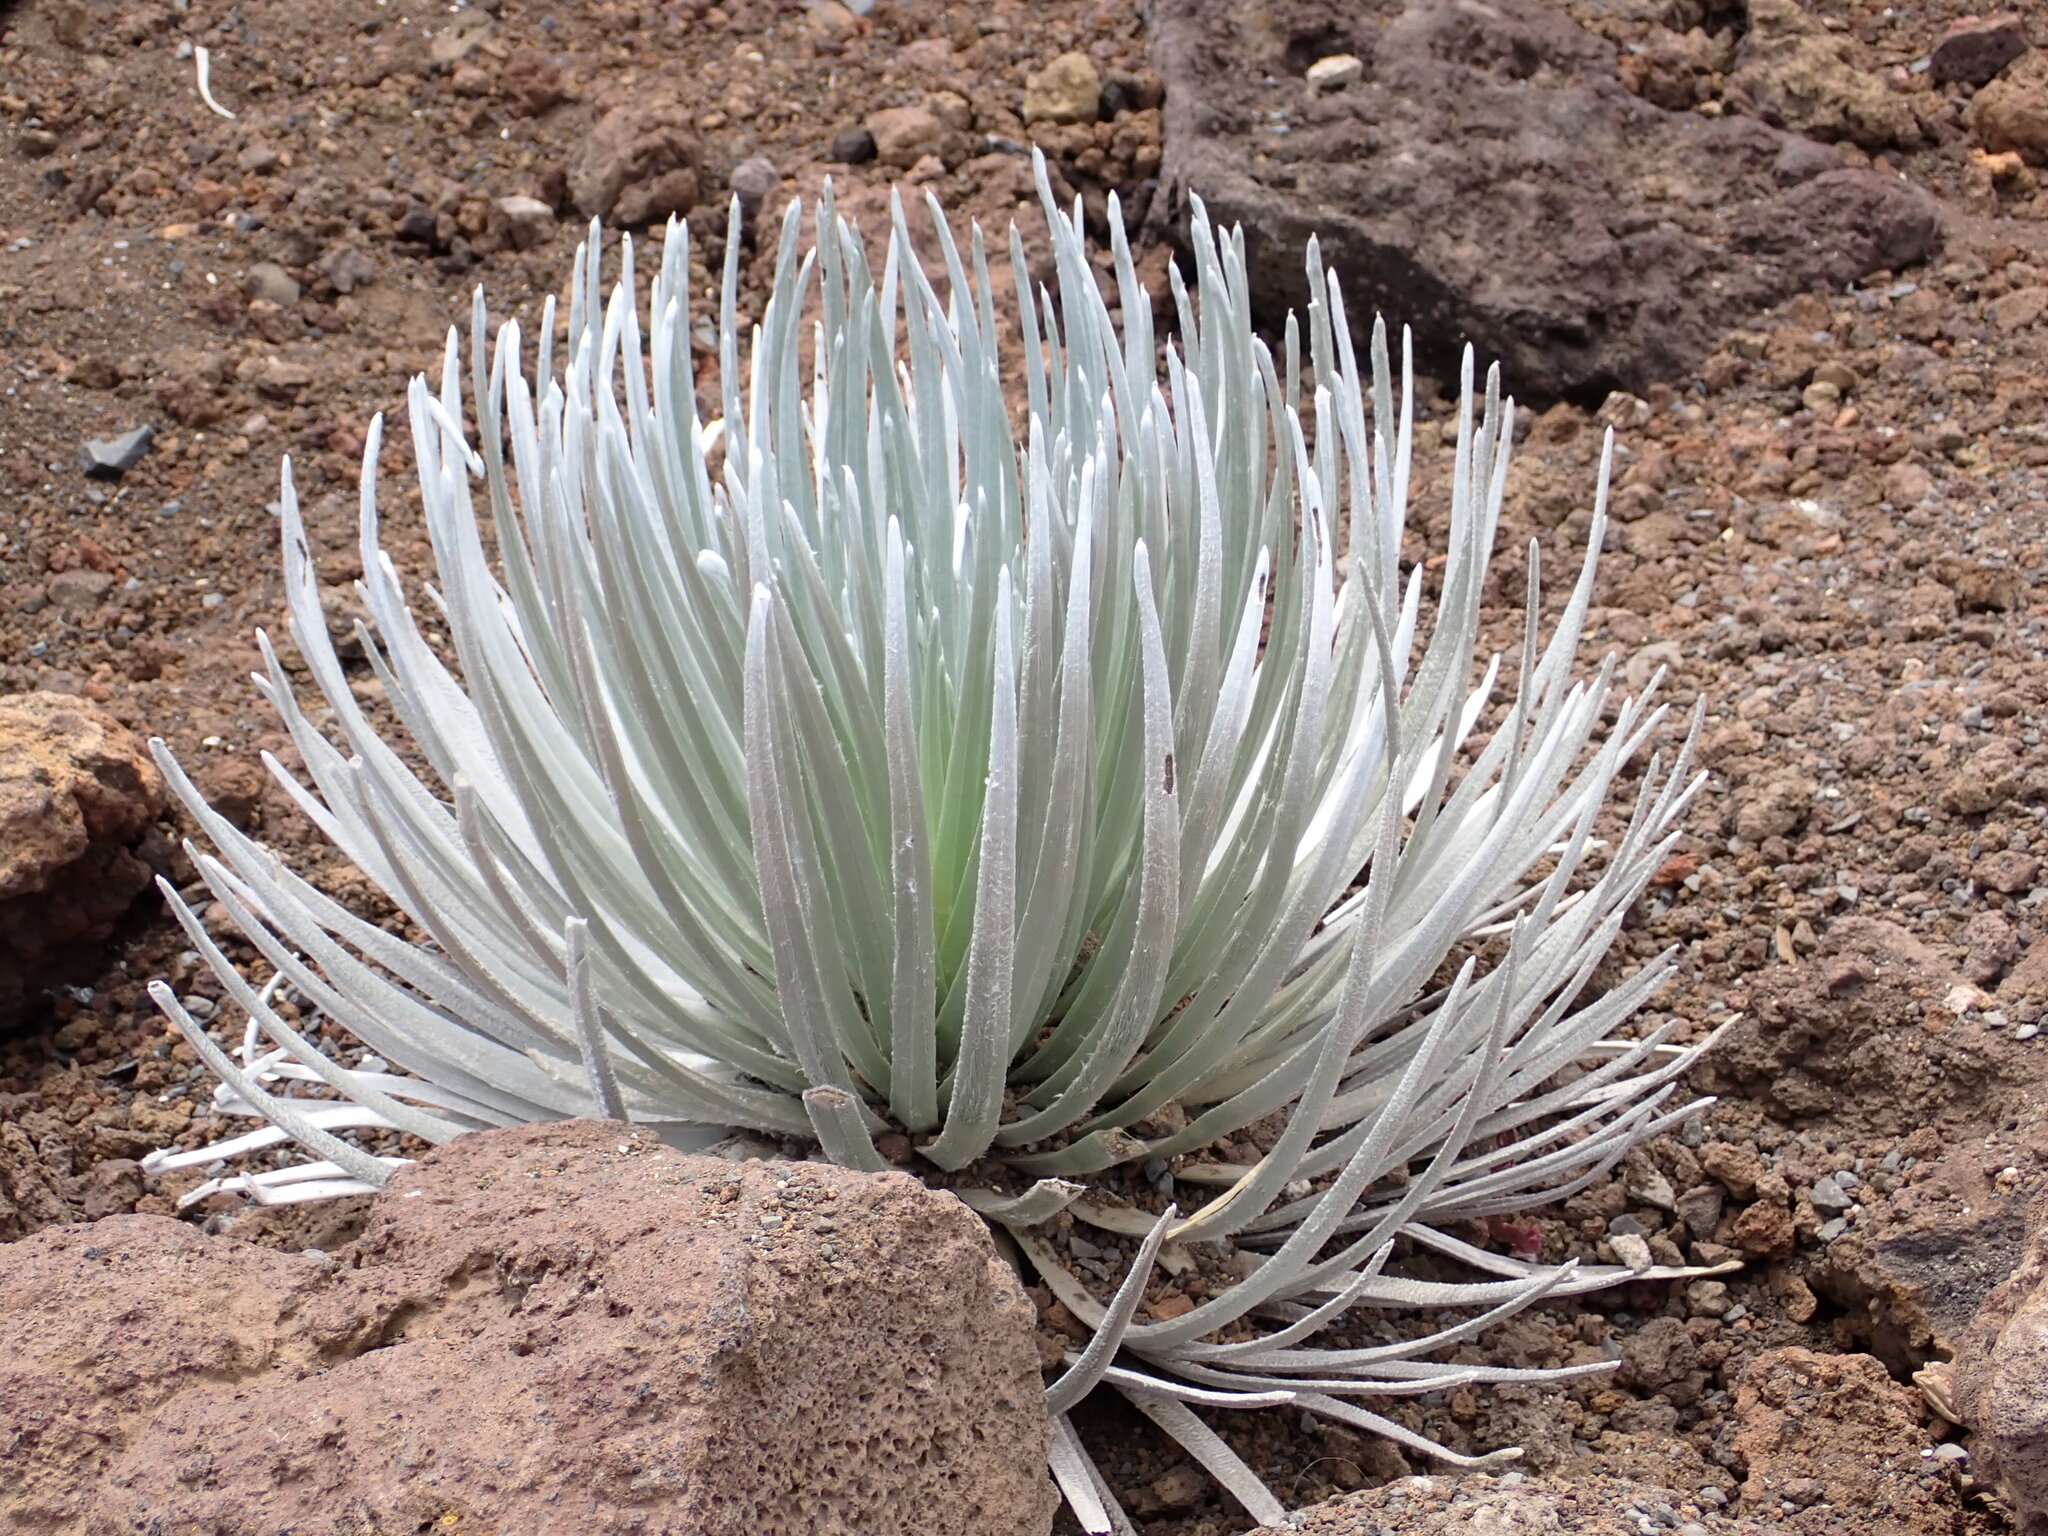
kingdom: Plantae
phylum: Tracheophyta
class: Magnoliopsida
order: Asterales
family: Asteraceae
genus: Argyroxiphium
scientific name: Argyroxiphium sandwicense
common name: Silversword
